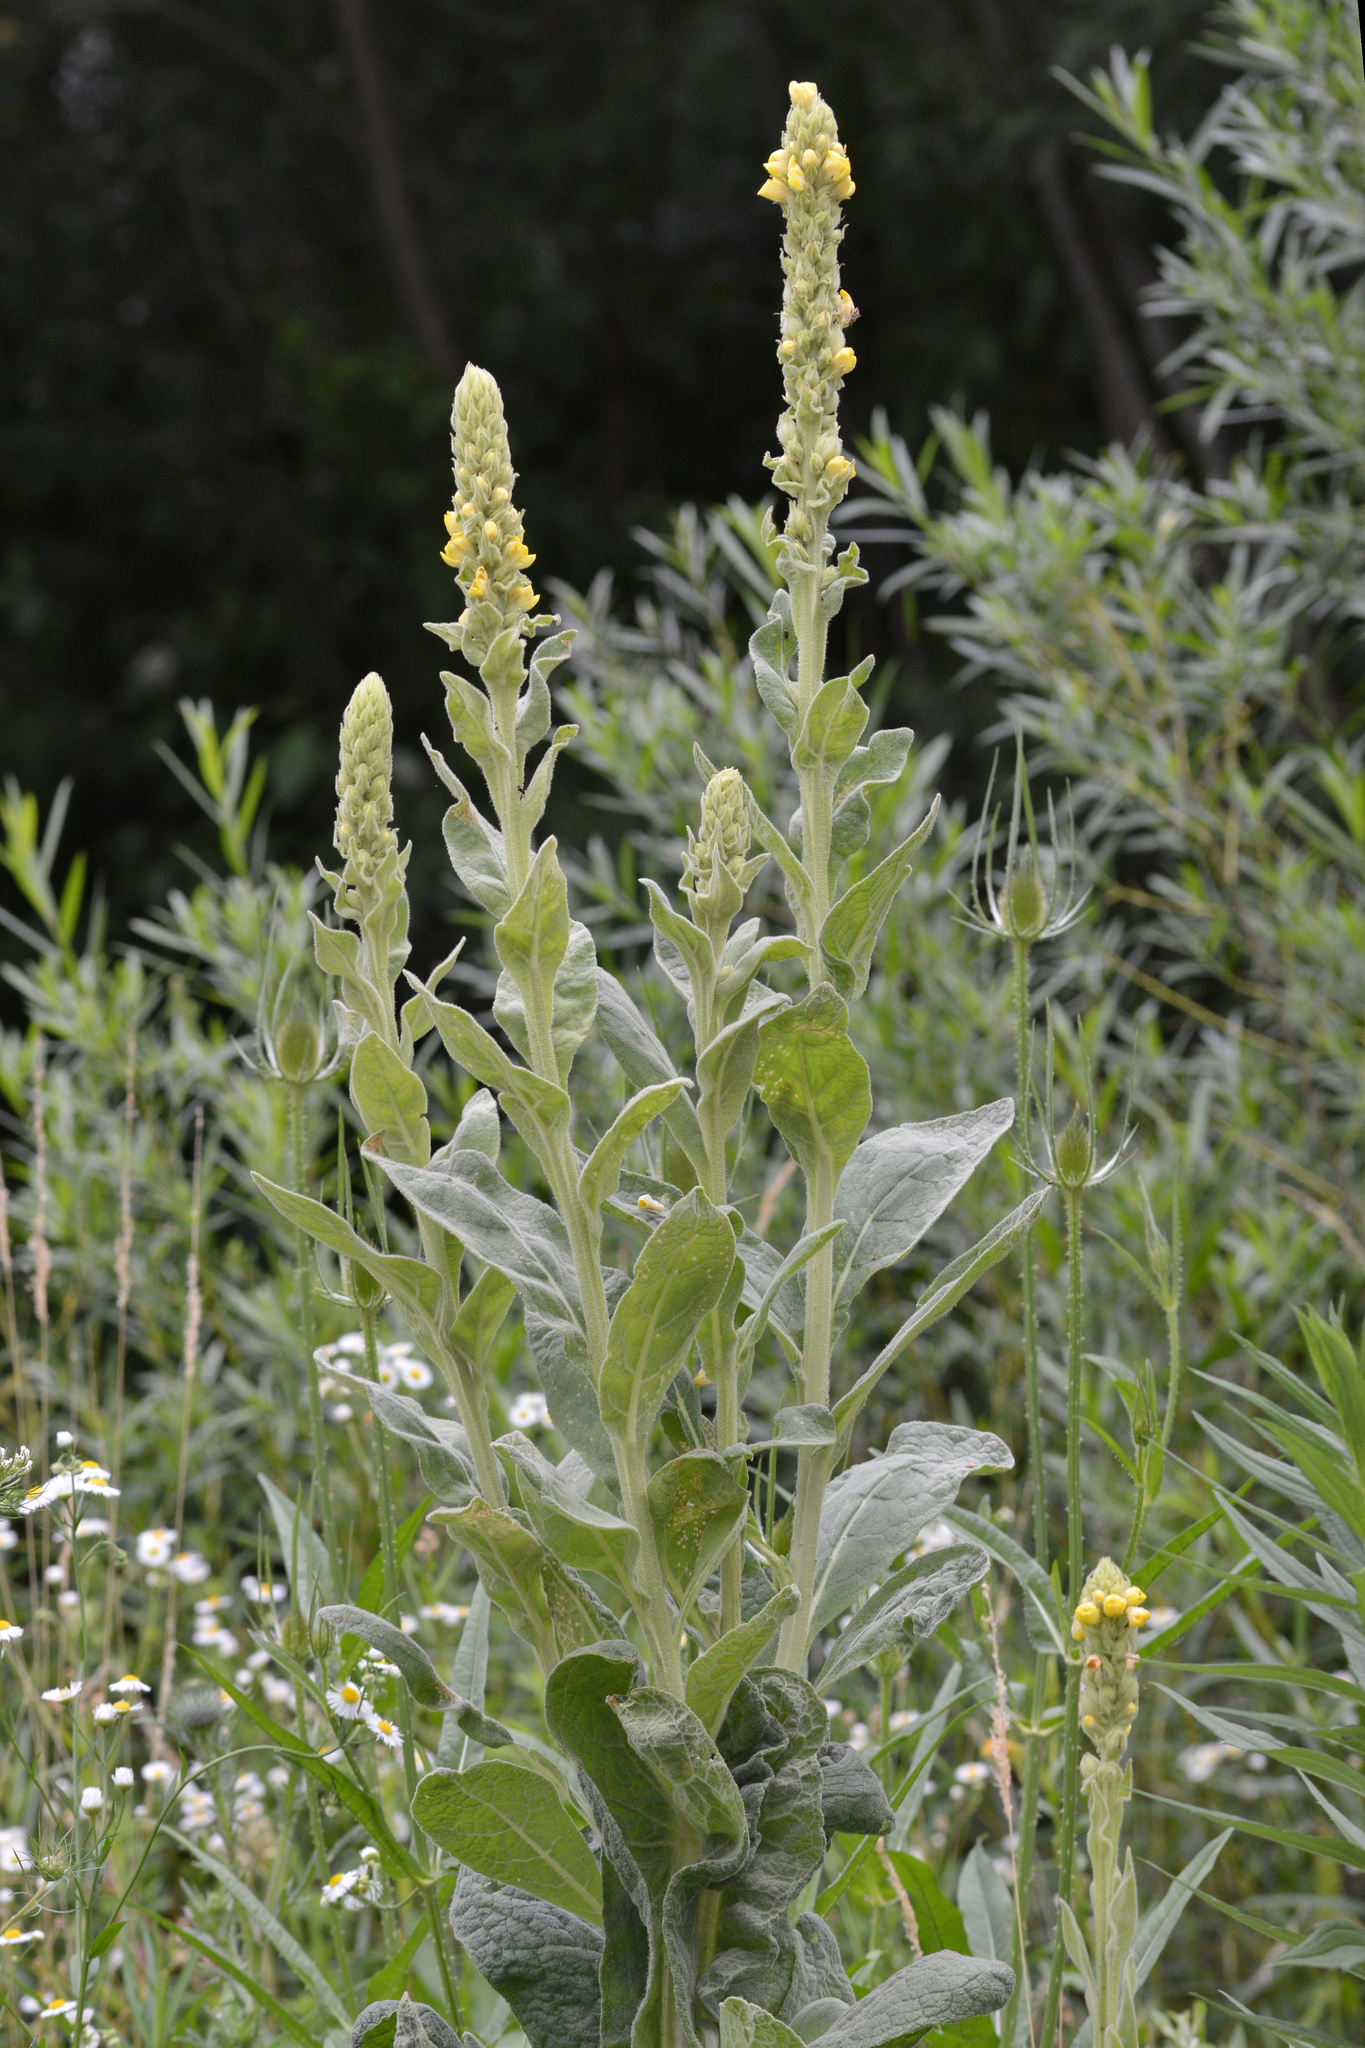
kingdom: Plantae
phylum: Tracheophyta
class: Magnoliopsida
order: Lamiales
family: Scrophulariaceae
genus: Verbascum
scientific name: Verbascum thapsus
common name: Common mullein
